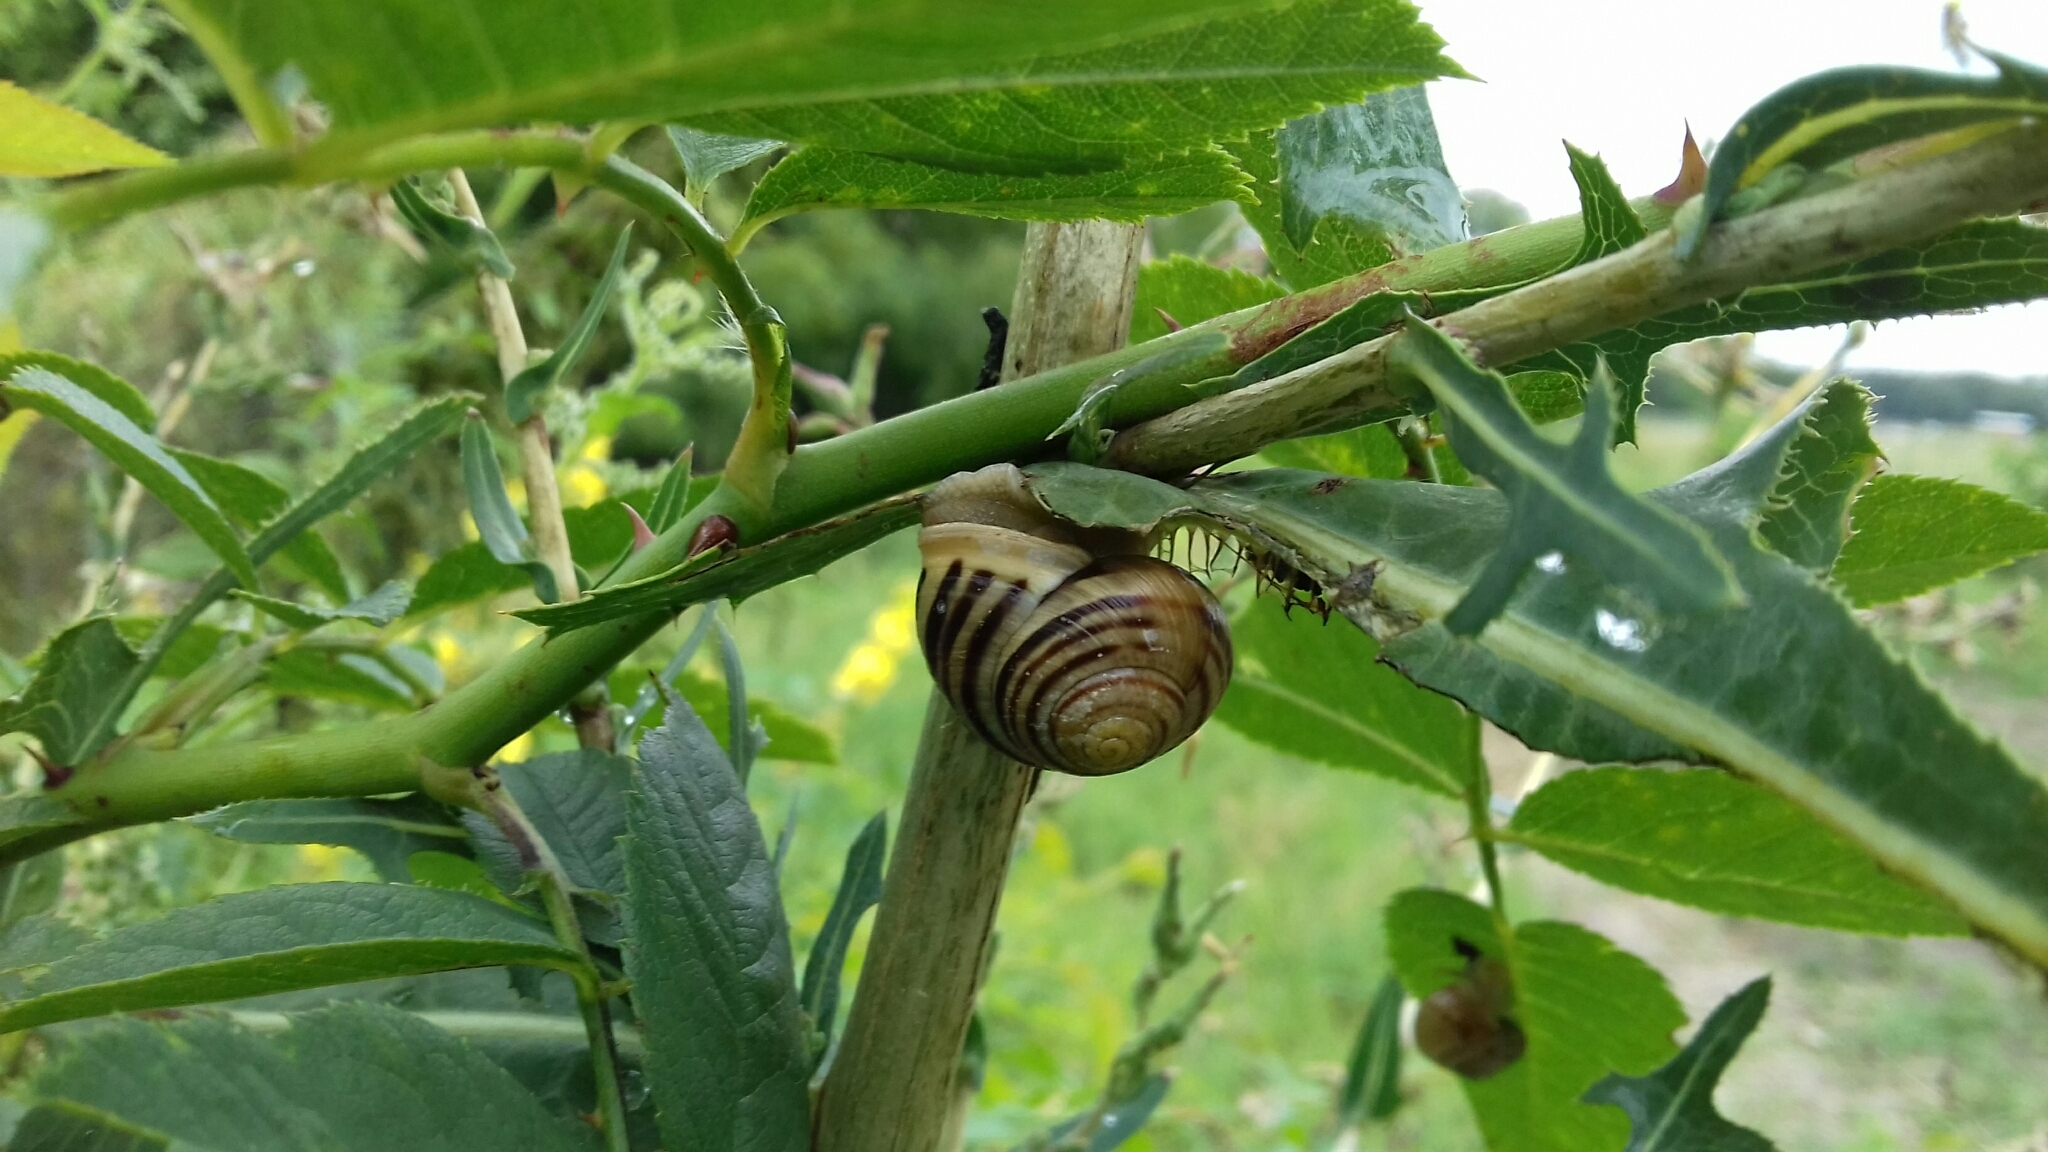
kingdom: Animalia
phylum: Mollusca
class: Gastropoda
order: Stylommatophora
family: Helicidae
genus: Cepaea
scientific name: Cepaea hortensis
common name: White-lip gardensnail
